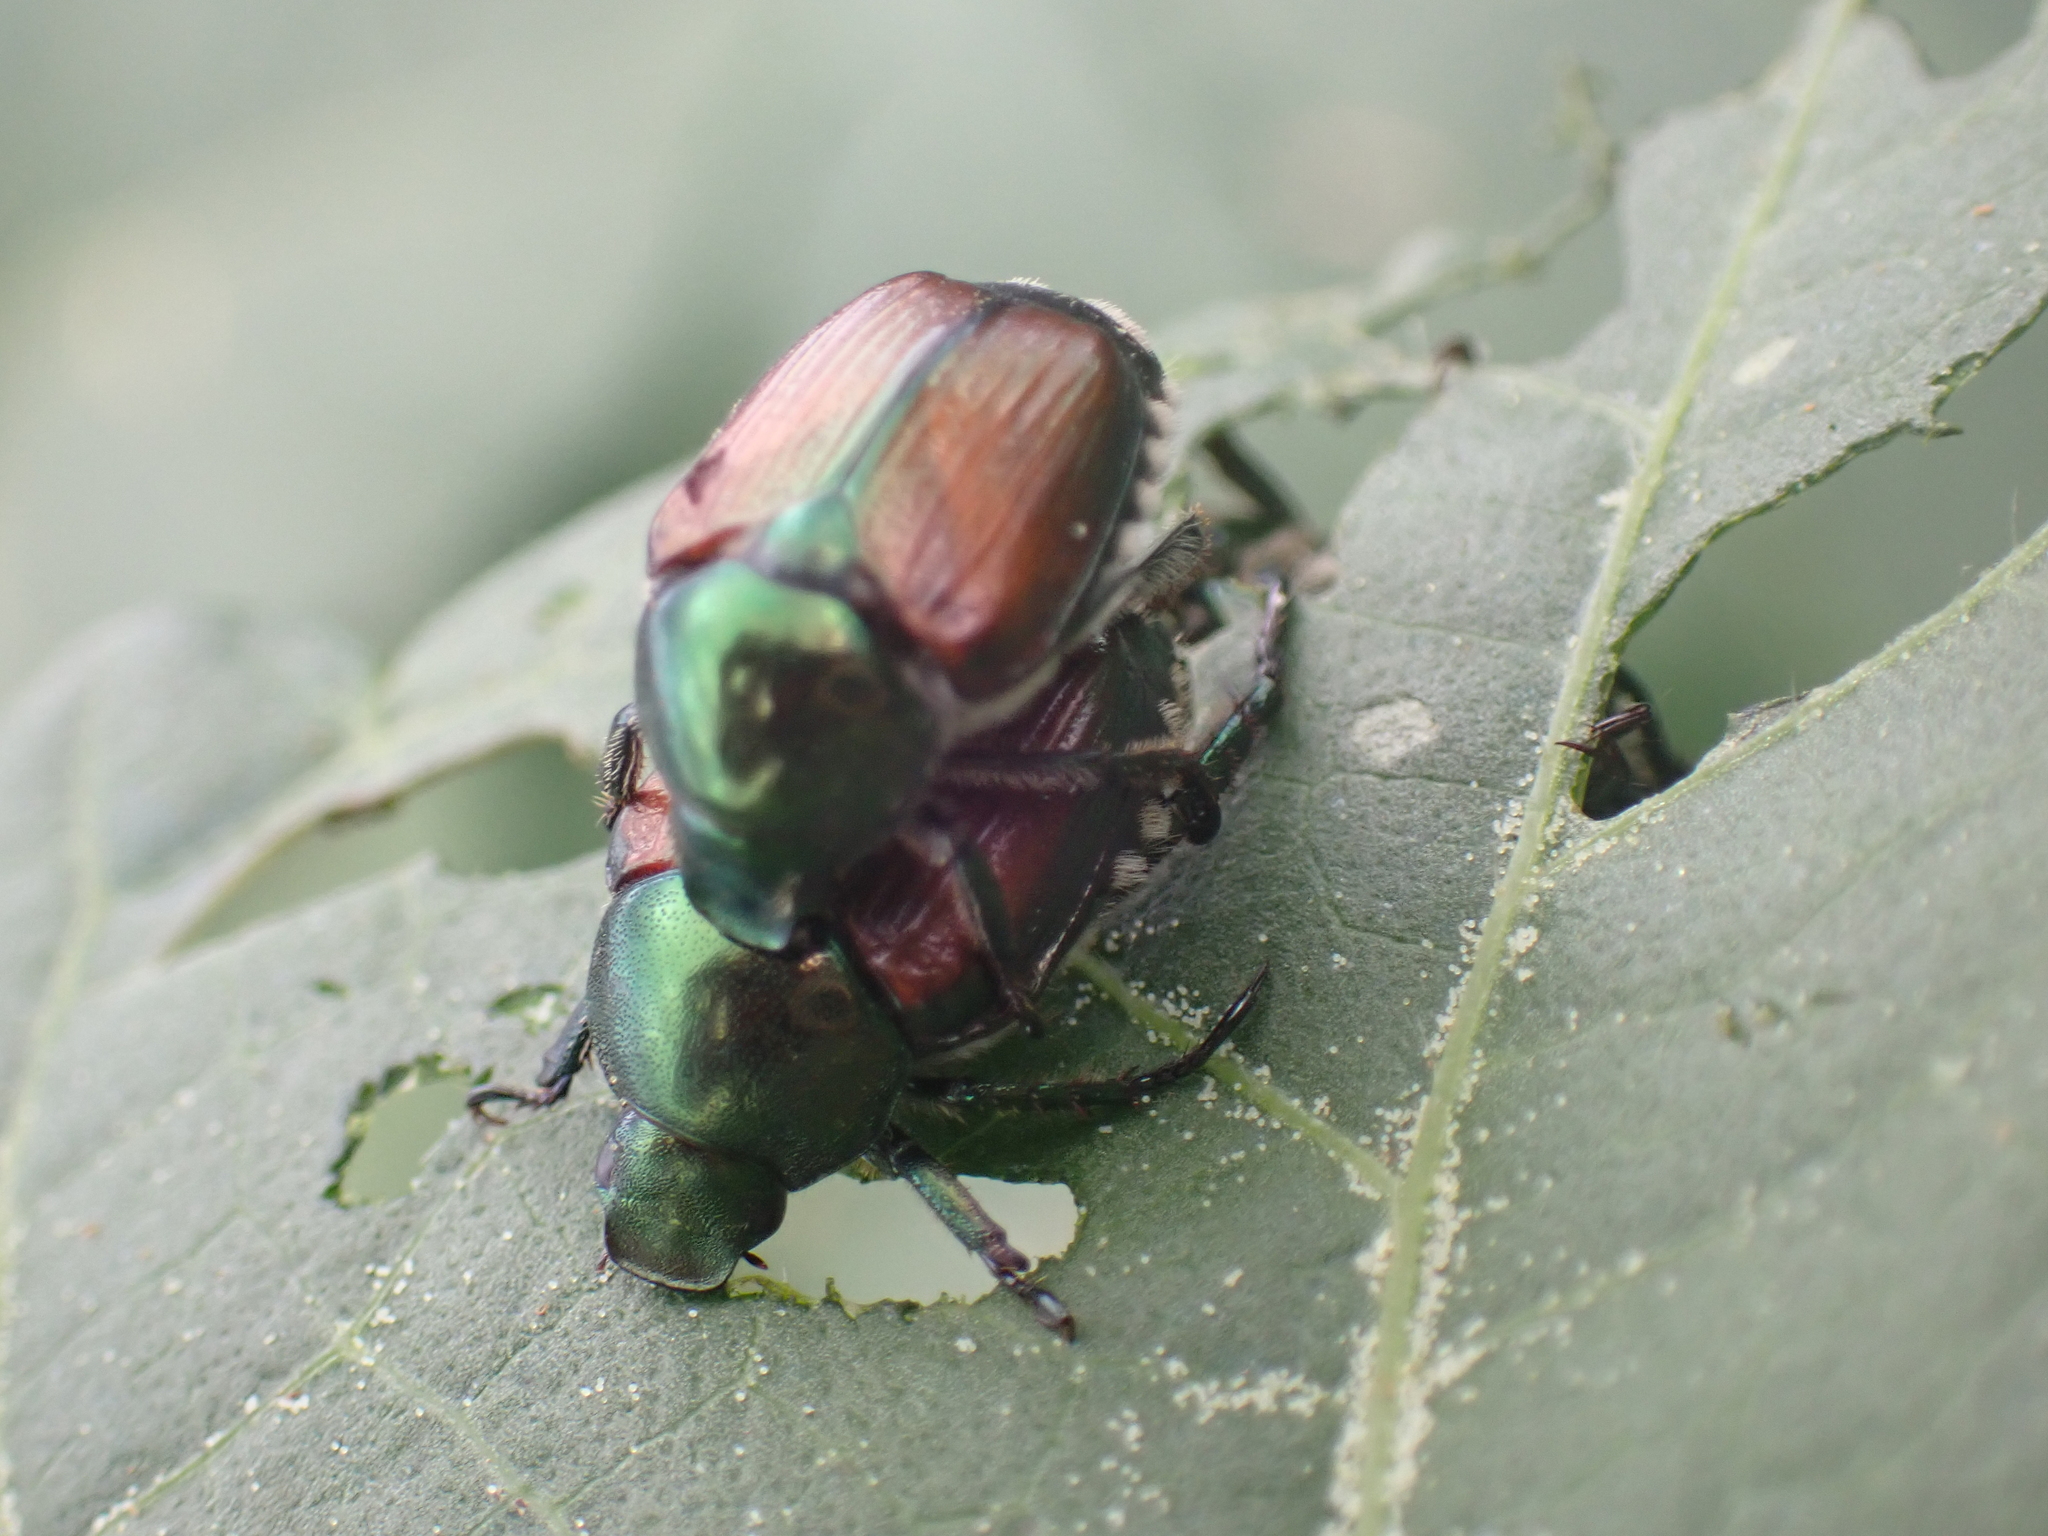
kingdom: Animalia
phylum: Arthropoda
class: Insecta
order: Coleoptera
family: Scarabaeidae
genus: Popillia
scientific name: Popillia japonica
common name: Japanese beetle
